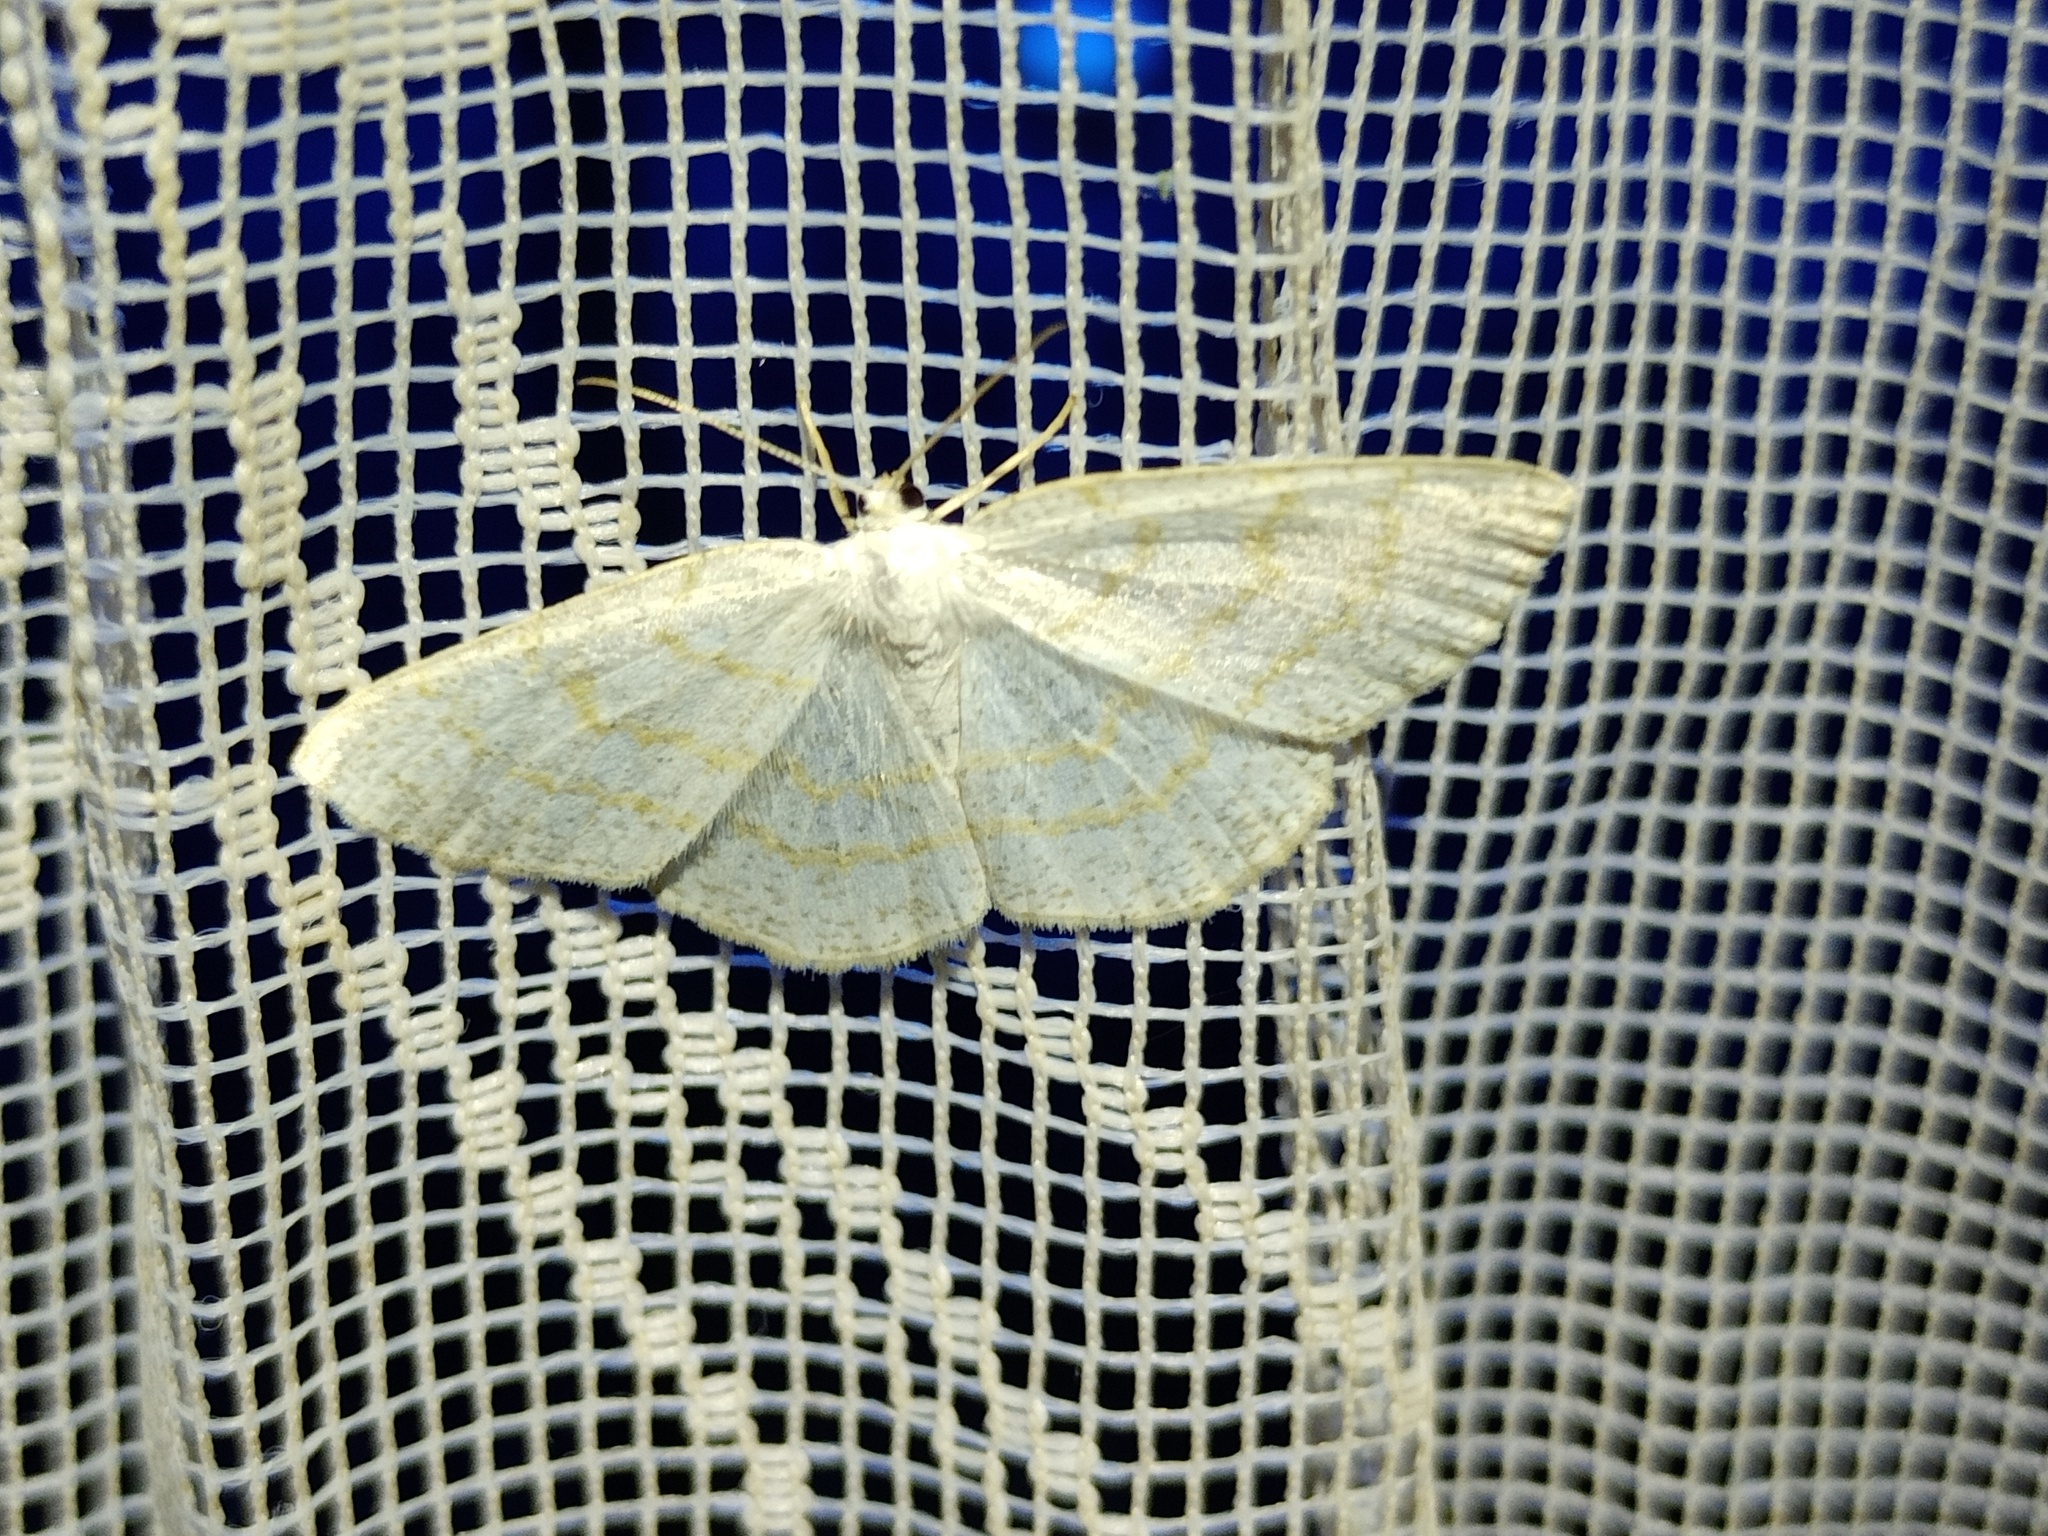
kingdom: Animalia
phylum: Arthropoda
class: Insecta
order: Lepidoptera
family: Geometridae
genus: Cabera
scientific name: Cabera exanthemata
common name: Common wave
